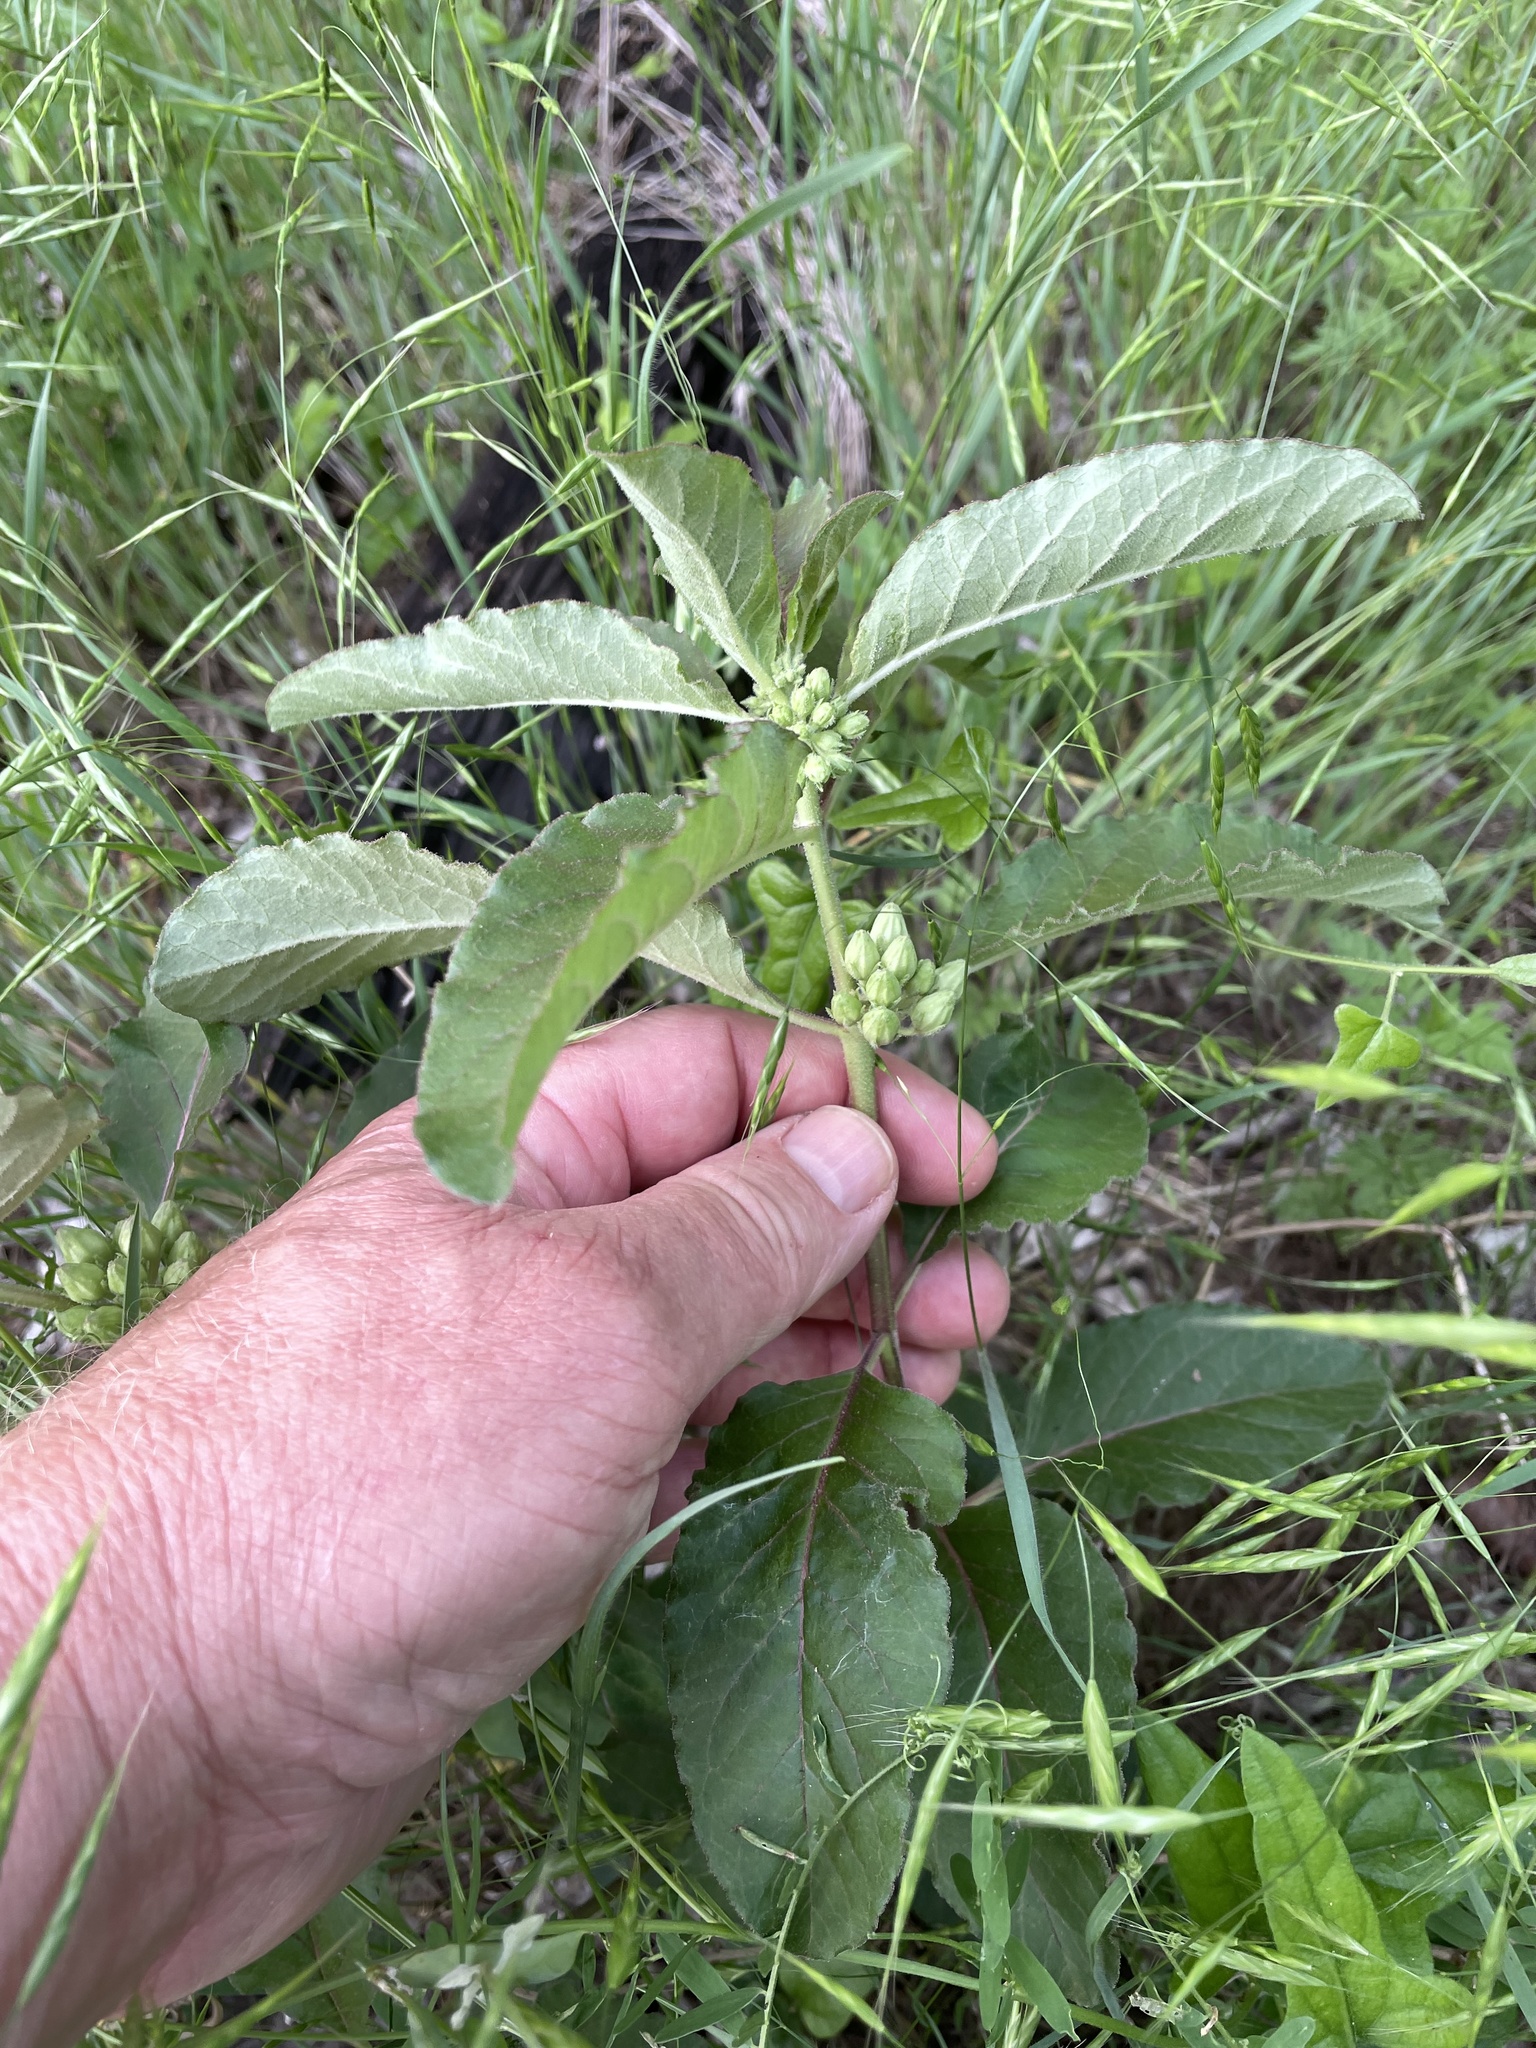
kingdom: Plantae
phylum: Tracheophyta
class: Magnoliopsida
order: Gentianales
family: Apocynaceae
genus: Asclepias
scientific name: Asclepias oenotheroides
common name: Zizotes milkweed
